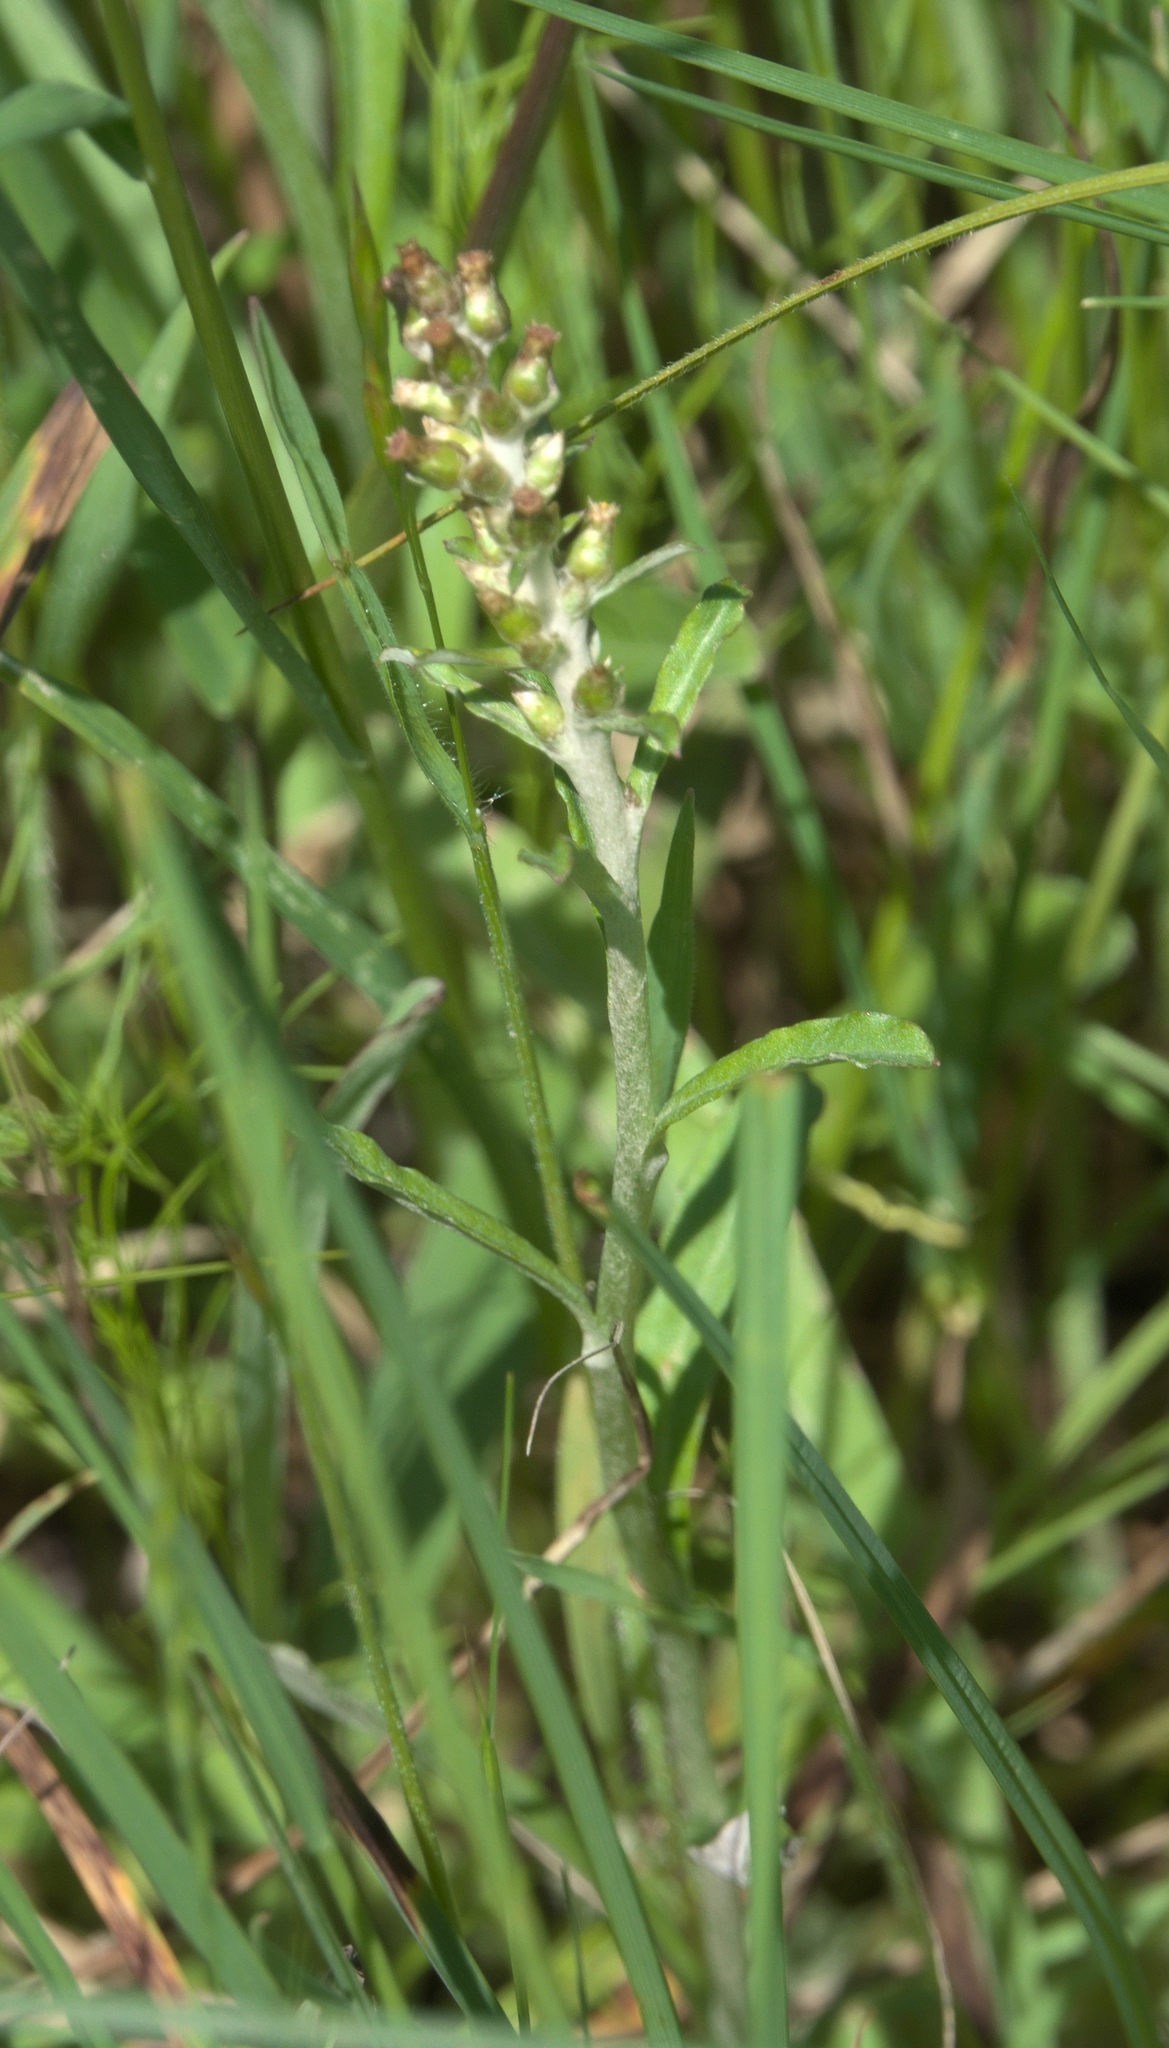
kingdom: Plantae
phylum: Tracheophyta
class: Magnoliopsida
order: Asterales
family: Asteraceae
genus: Gamochaeta
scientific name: Gamochaeta purpurea
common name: Purple cudweed
